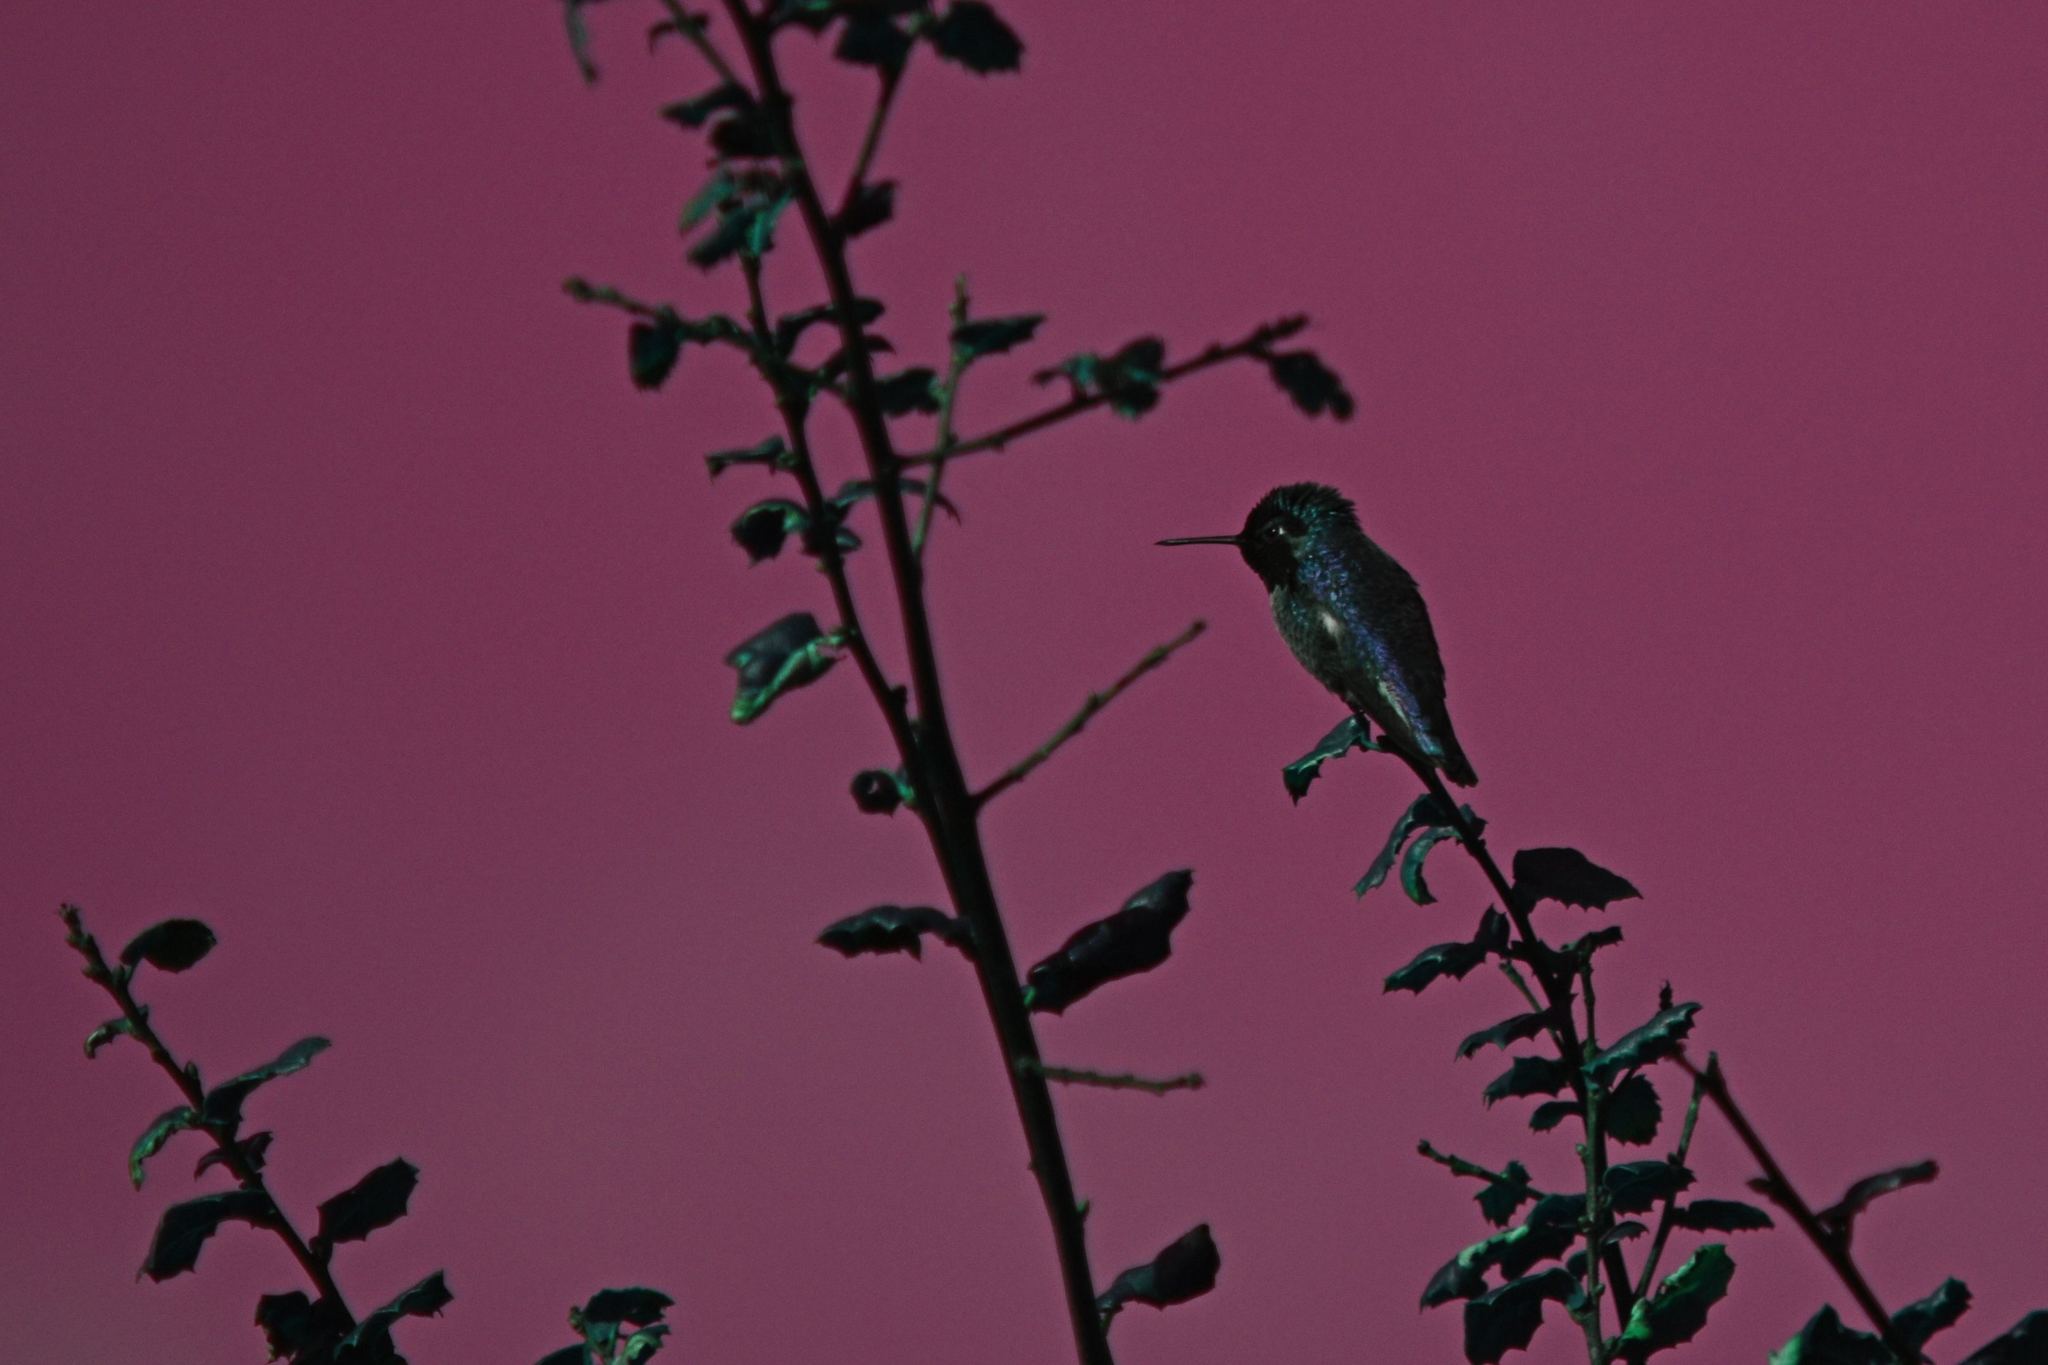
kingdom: Animalia
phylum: Chordata
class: Aves
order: Apodiformes
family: Trochilidae
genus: Calypte
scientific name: Calypte anna
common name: Anna's hummingbird
